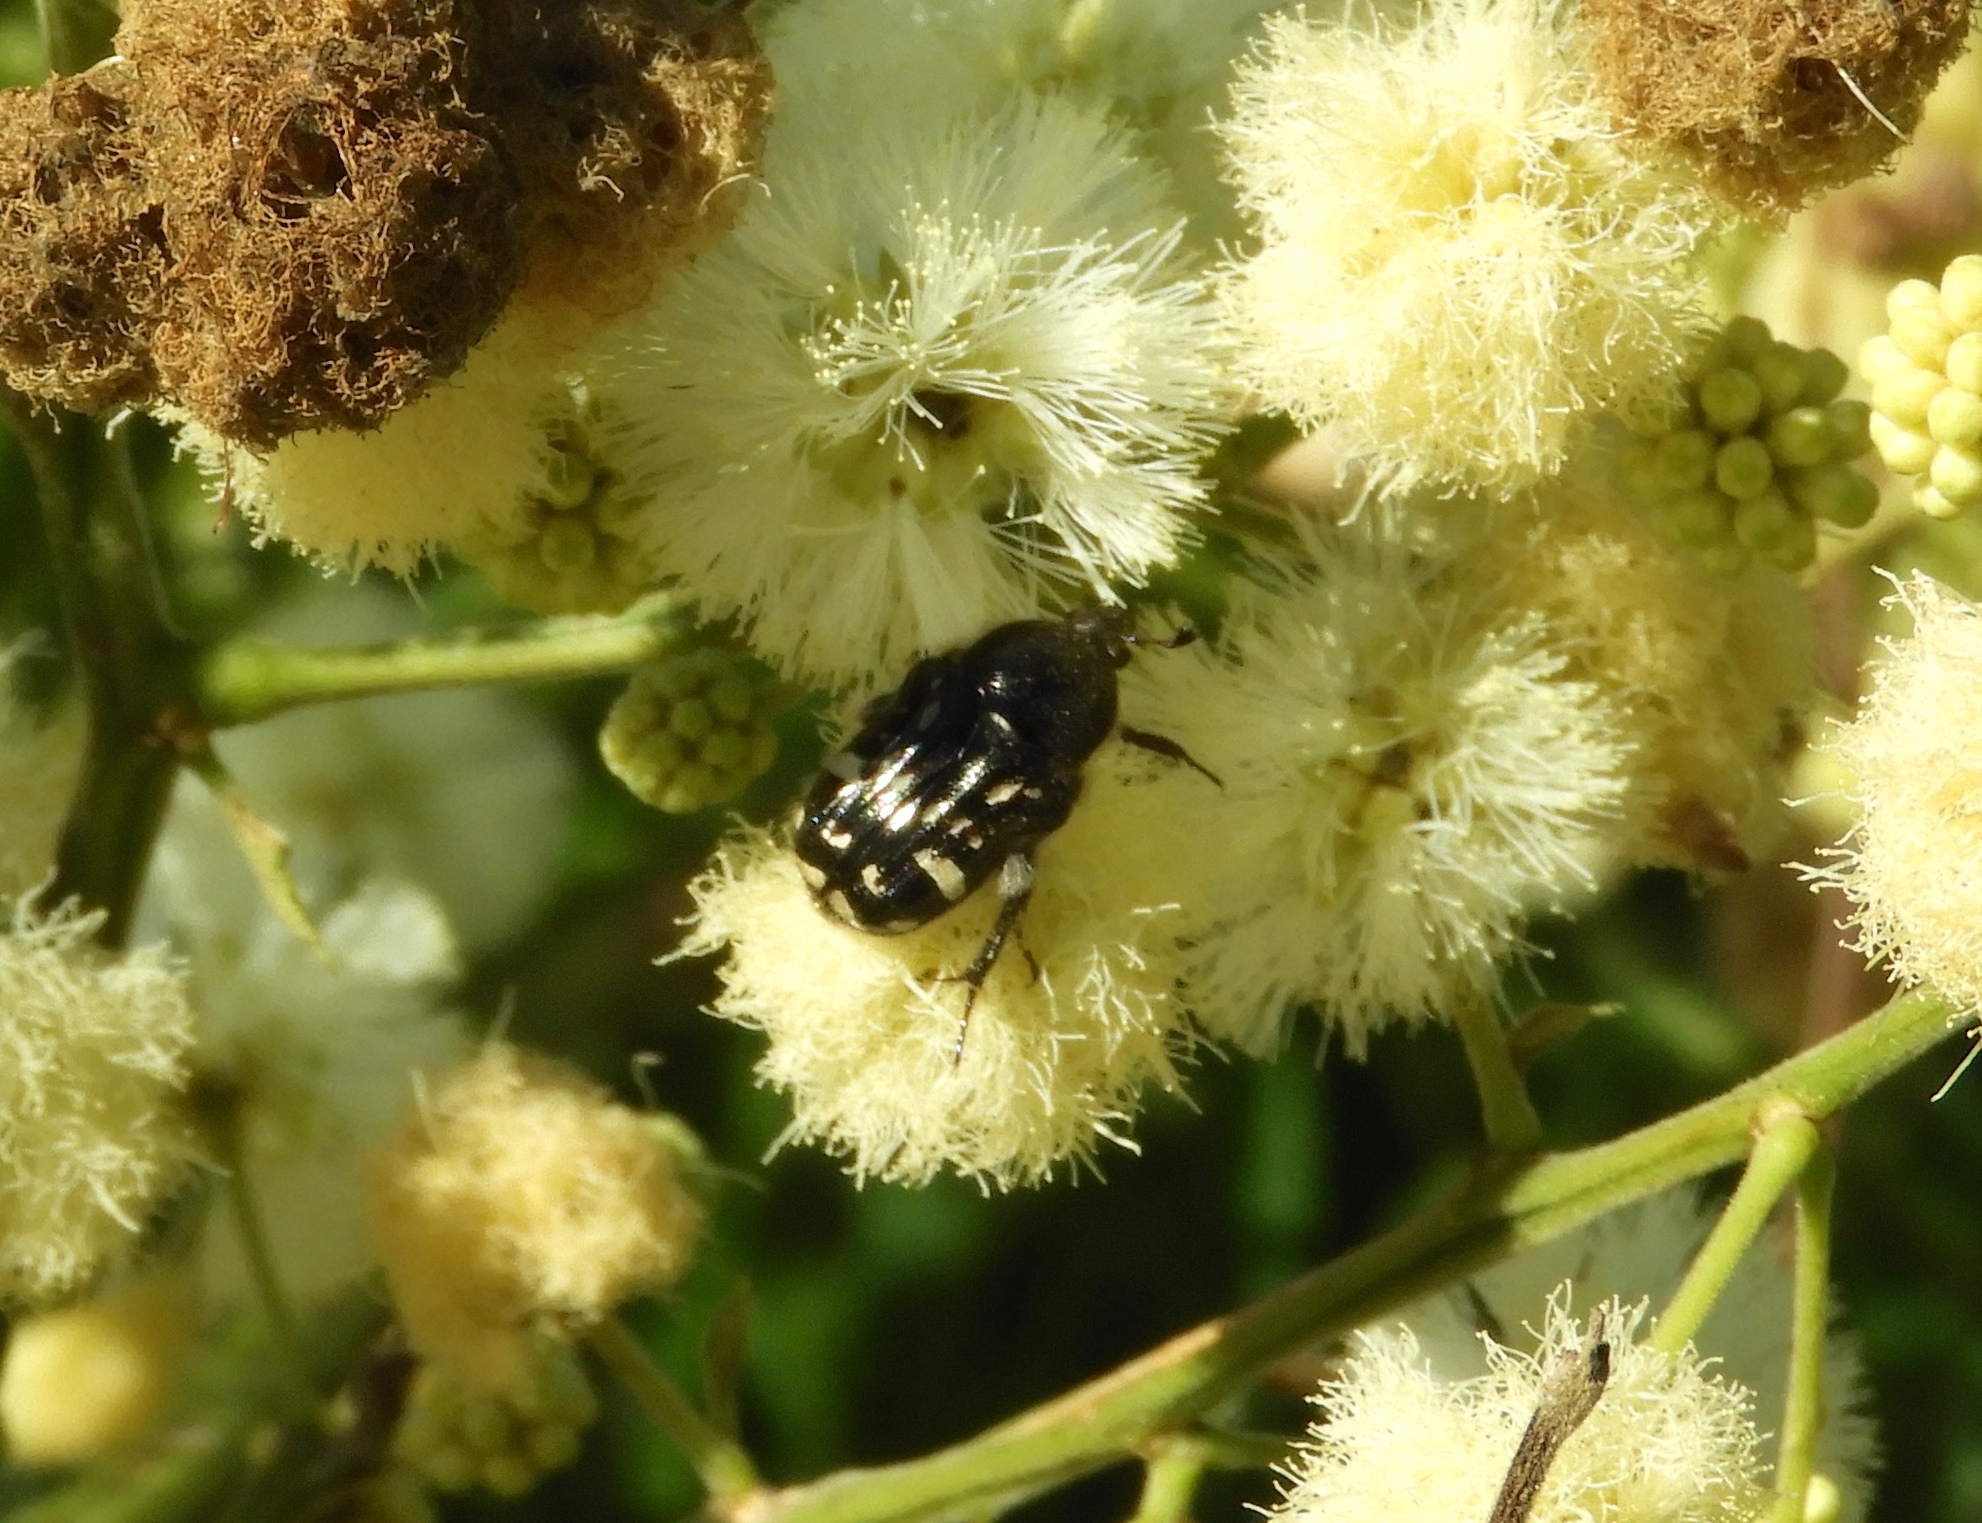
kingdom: Animalia
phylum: Arthropoda
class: Insecta
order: Coleoptera
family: Scarabaeidae
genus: Euphoria
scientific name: Euphoria
